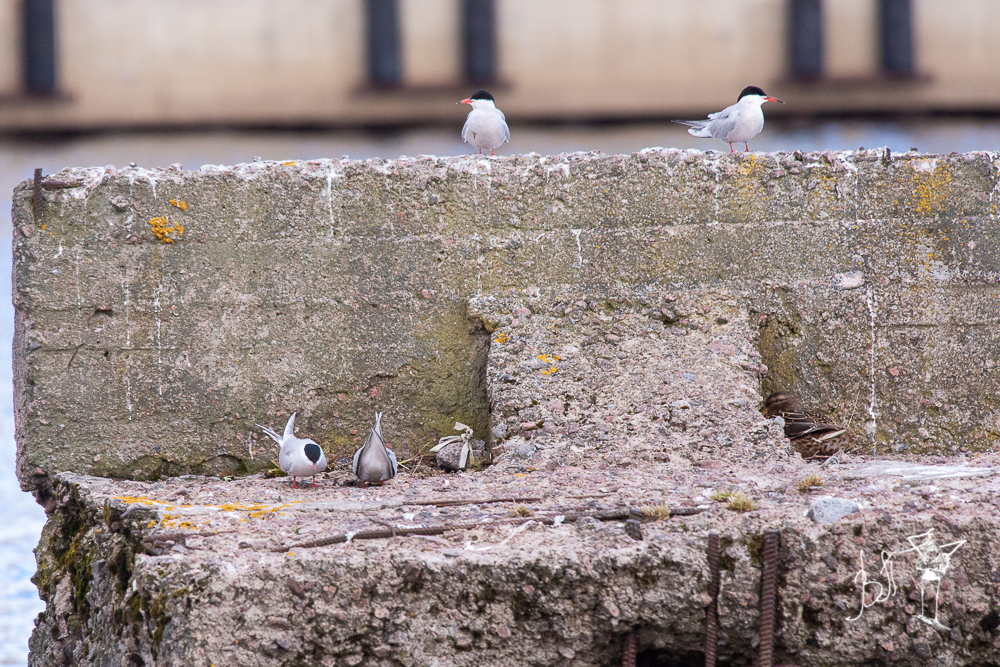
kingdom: Animalia
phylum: Chordata
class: Aves
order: Charadriiformes
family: Laridae
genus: Sterna
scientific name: Sterna hirundo
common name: Common tern
